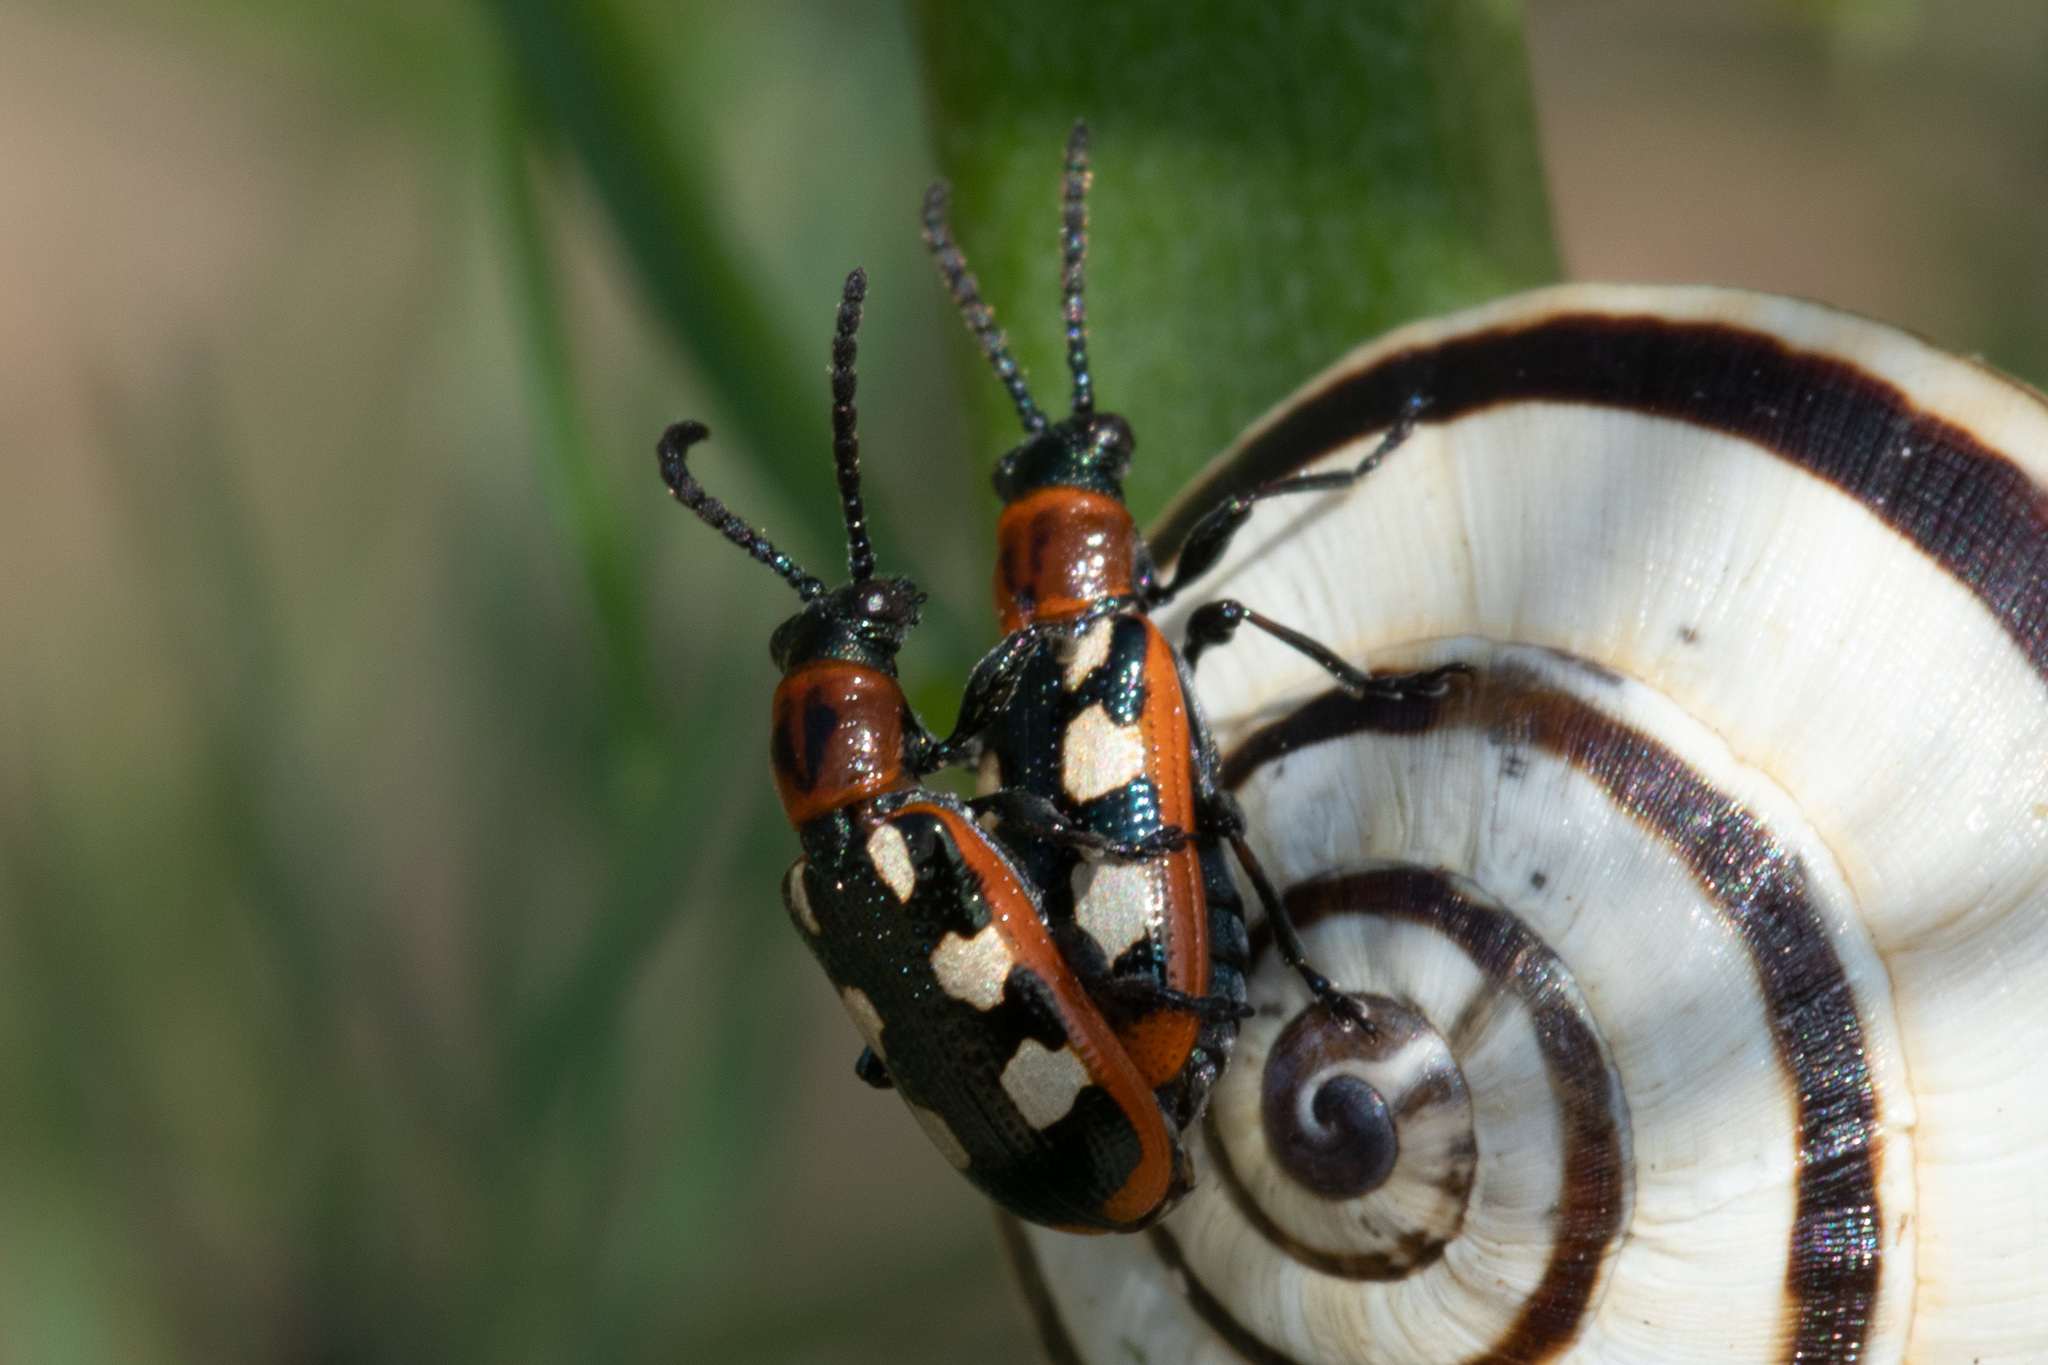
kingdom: Animalia
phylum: Arthropoda
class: Insecta
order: Coleoptera
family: Chrysomelidae
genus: Crioceris
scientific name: Crioceris asparagi
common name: Asparagus beetle
